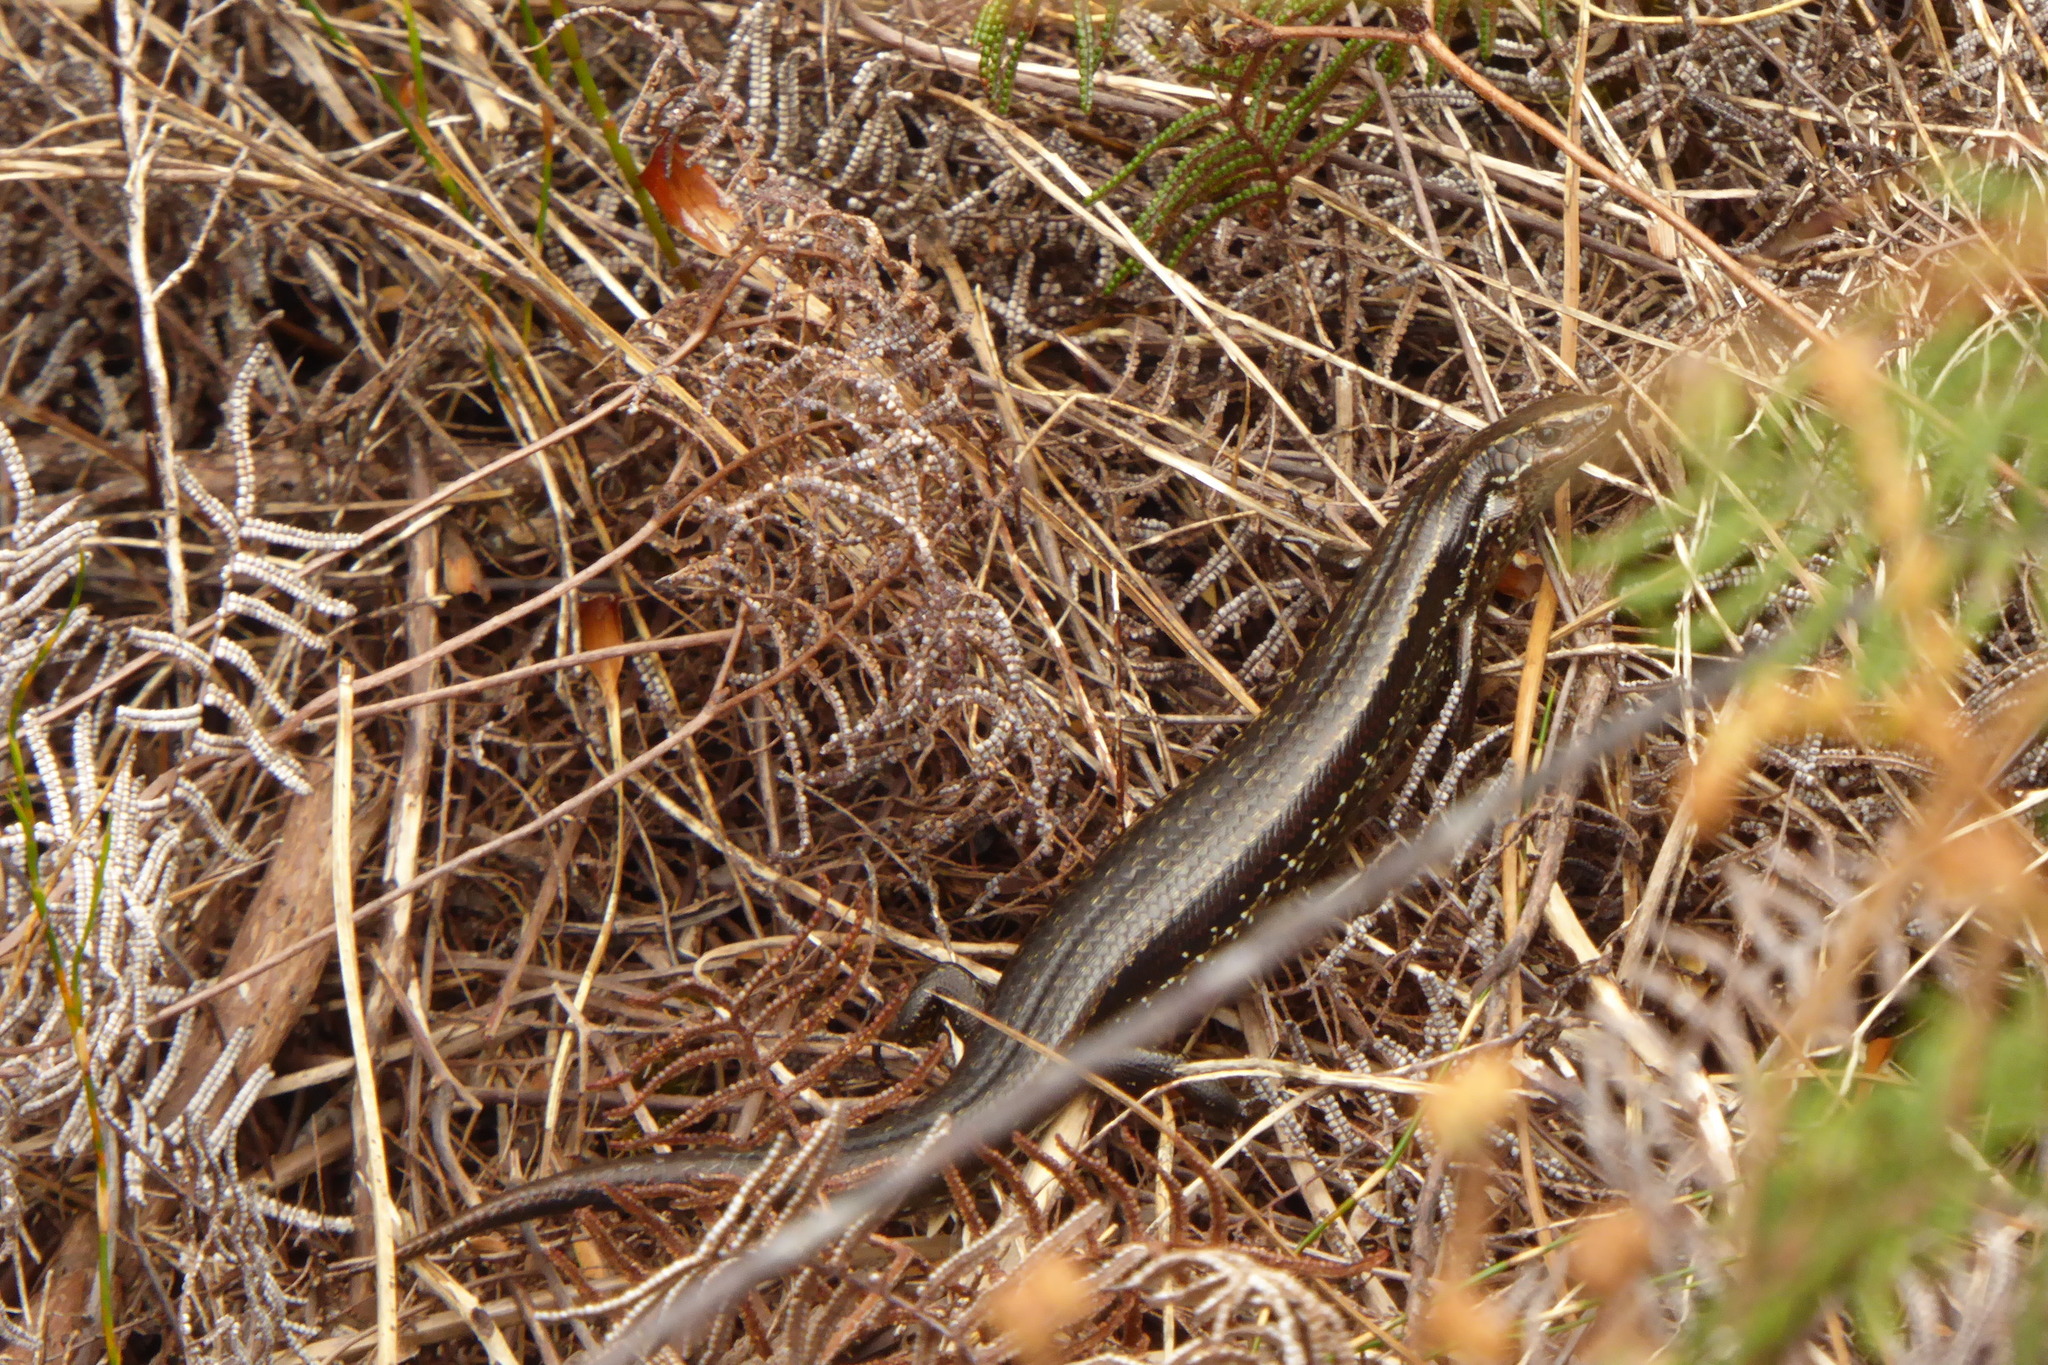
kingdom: Animalia
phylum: Chordata
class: Squamata
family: Scincidae
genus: Oligosoma
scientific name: Oligosoma notosaurus
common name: Southern skink
